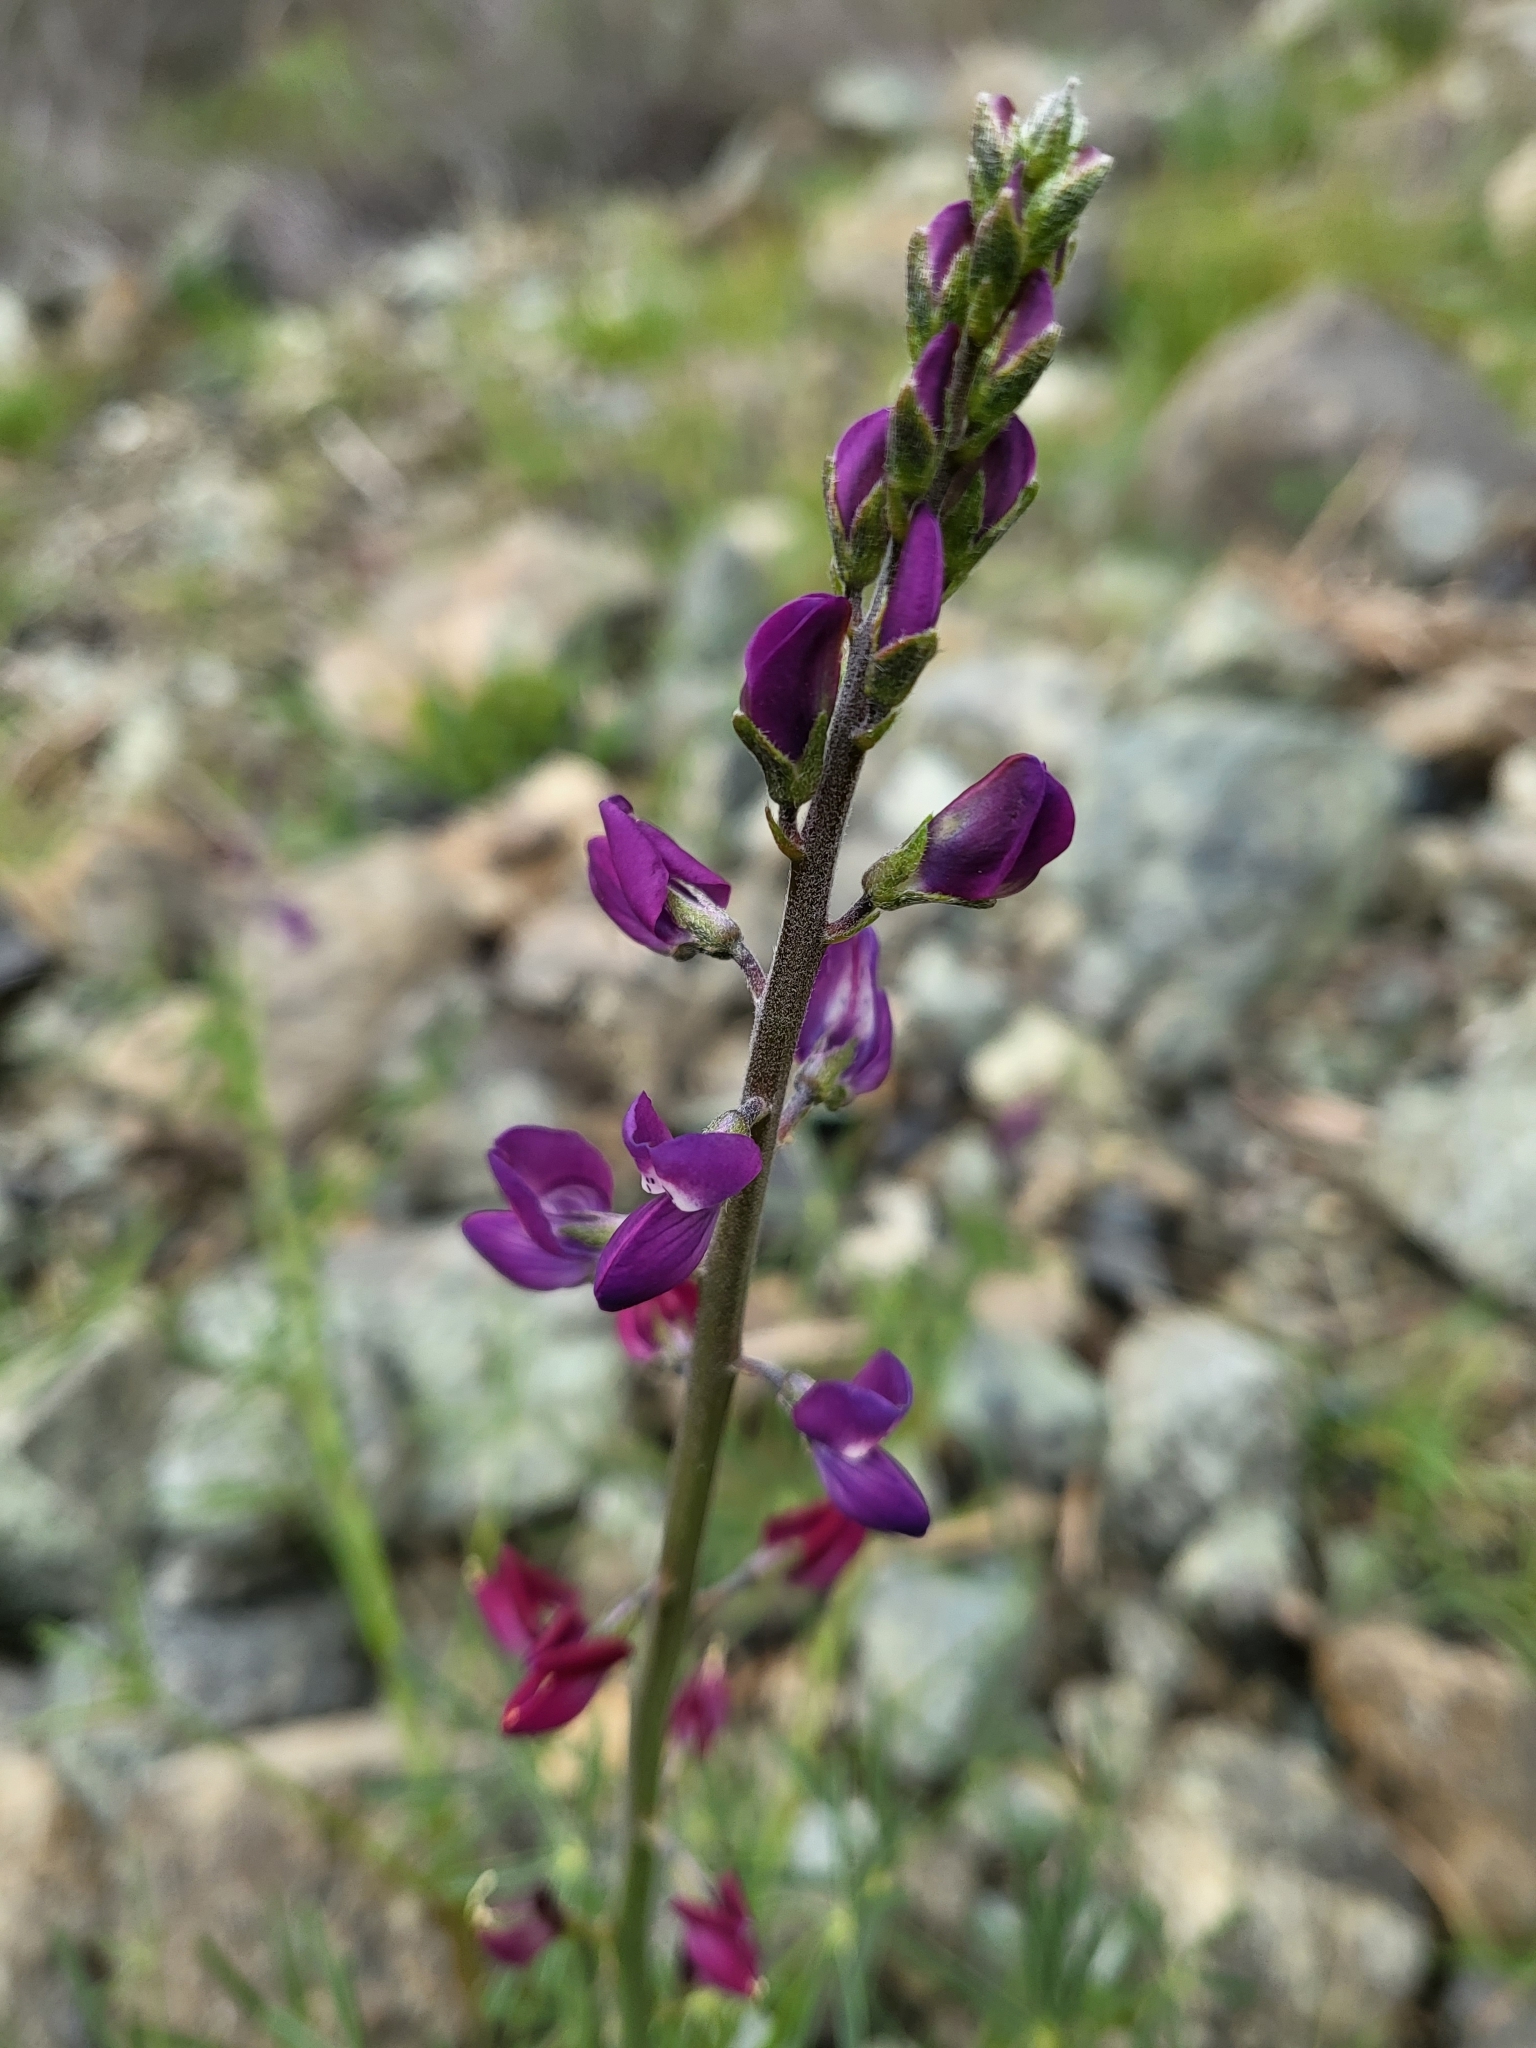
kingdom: Plantae
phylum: Tracheophyta
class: Magnoliopsida
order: Fabales
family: Fabaceae
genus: Lupinus
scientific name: Lupinus truncatus
